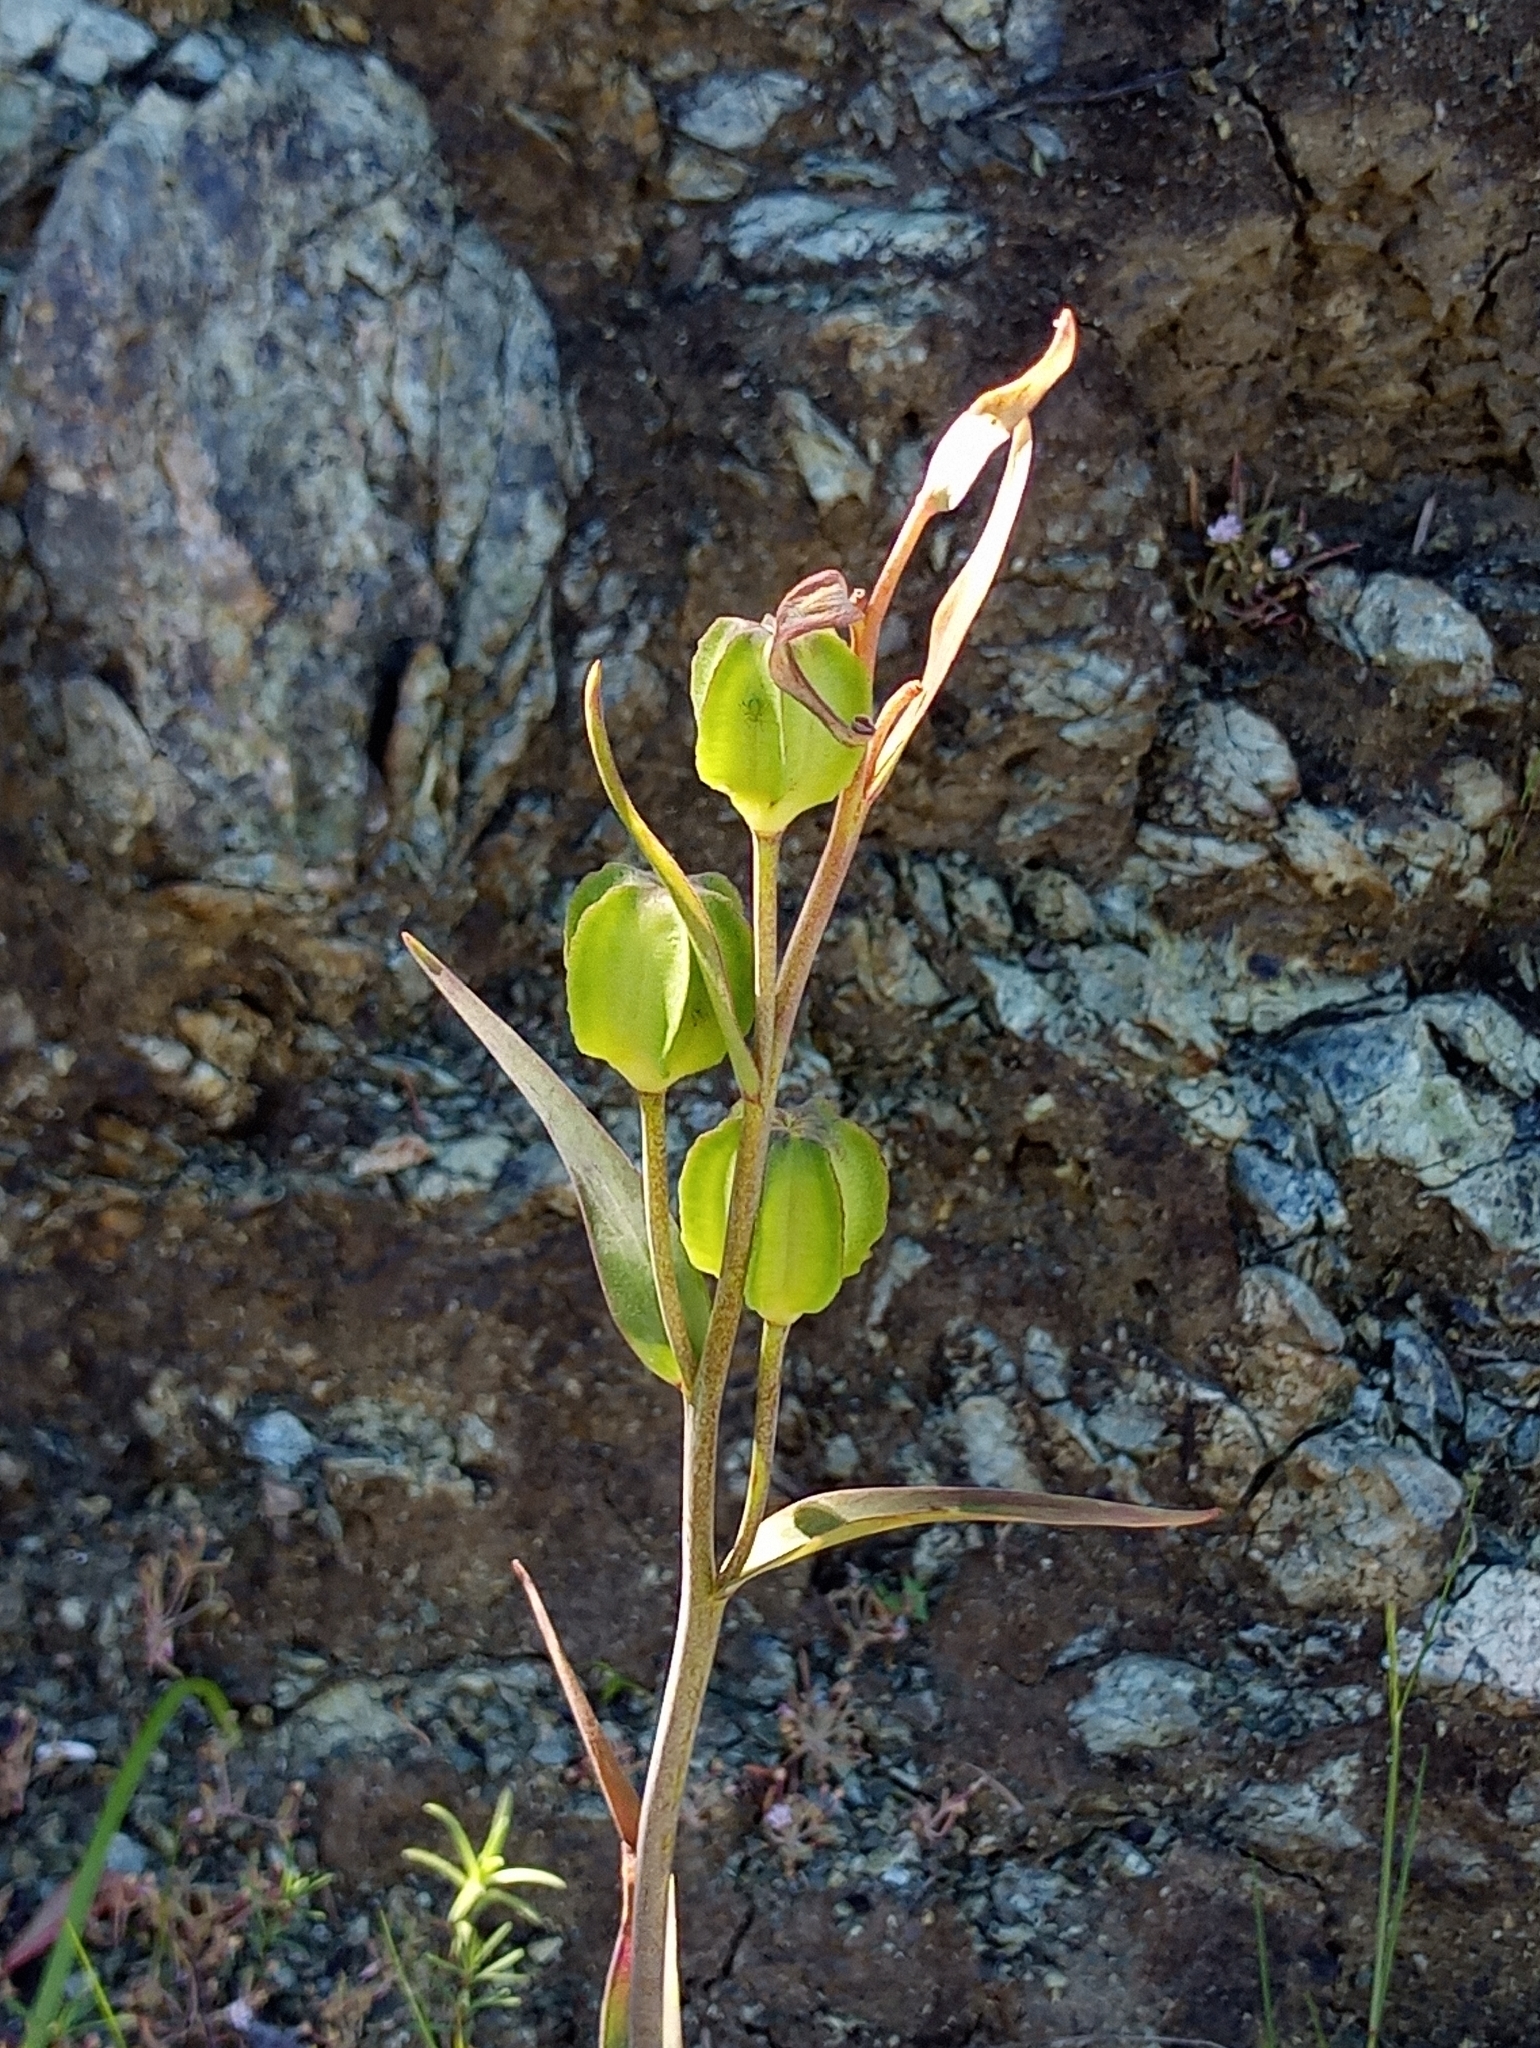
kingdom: Plantae
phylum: Tracheophyta
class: Liliopsida
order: Liliales
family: Liliaceae
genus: Fritillaria
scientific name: Fritillaria affinis
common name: Ojai fritillary
